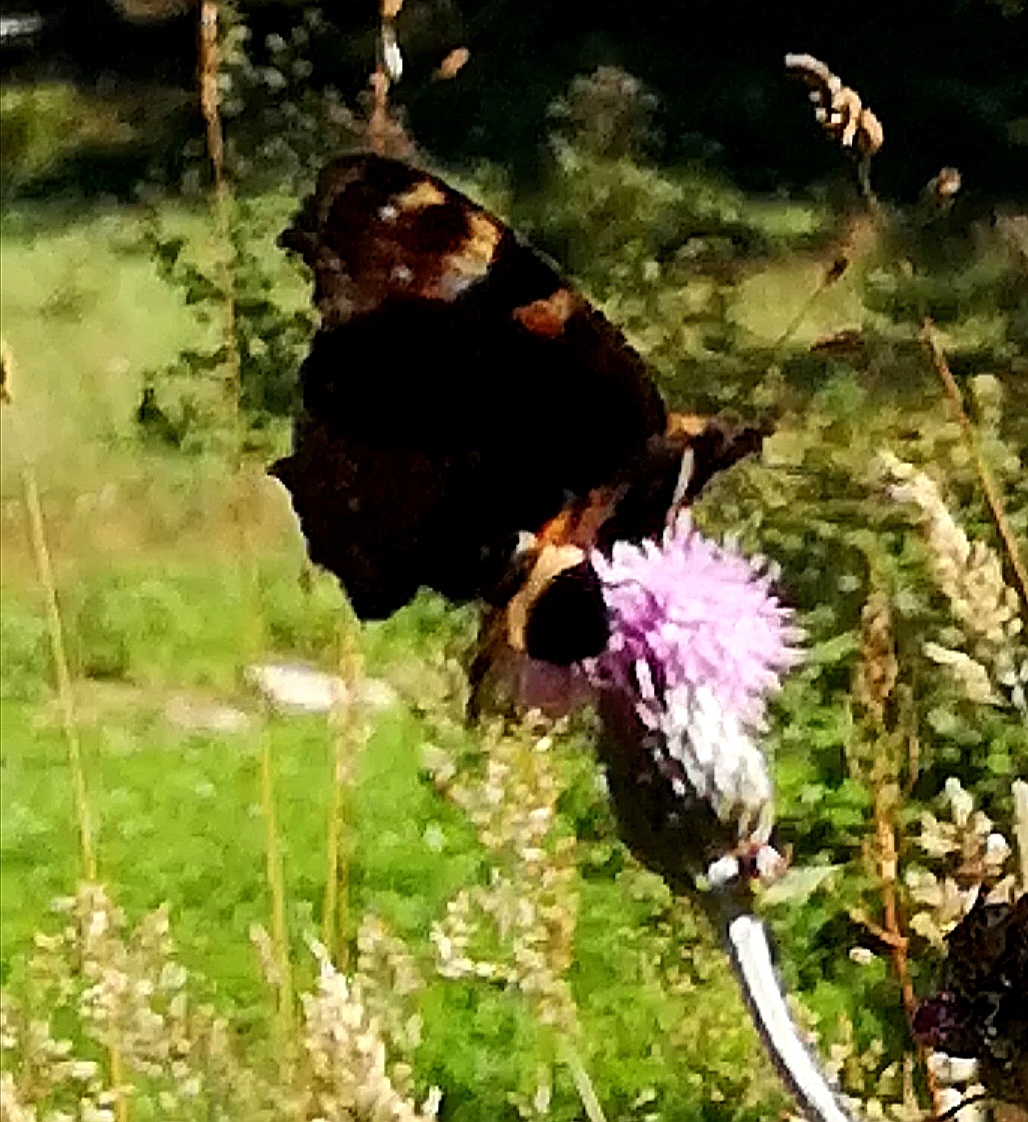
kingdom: Animalia
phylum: Arthropoda
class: Insecta
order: Lepidoptera
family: Nymphalidae
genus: Aglais
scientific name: Aglais io
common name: Peacock
